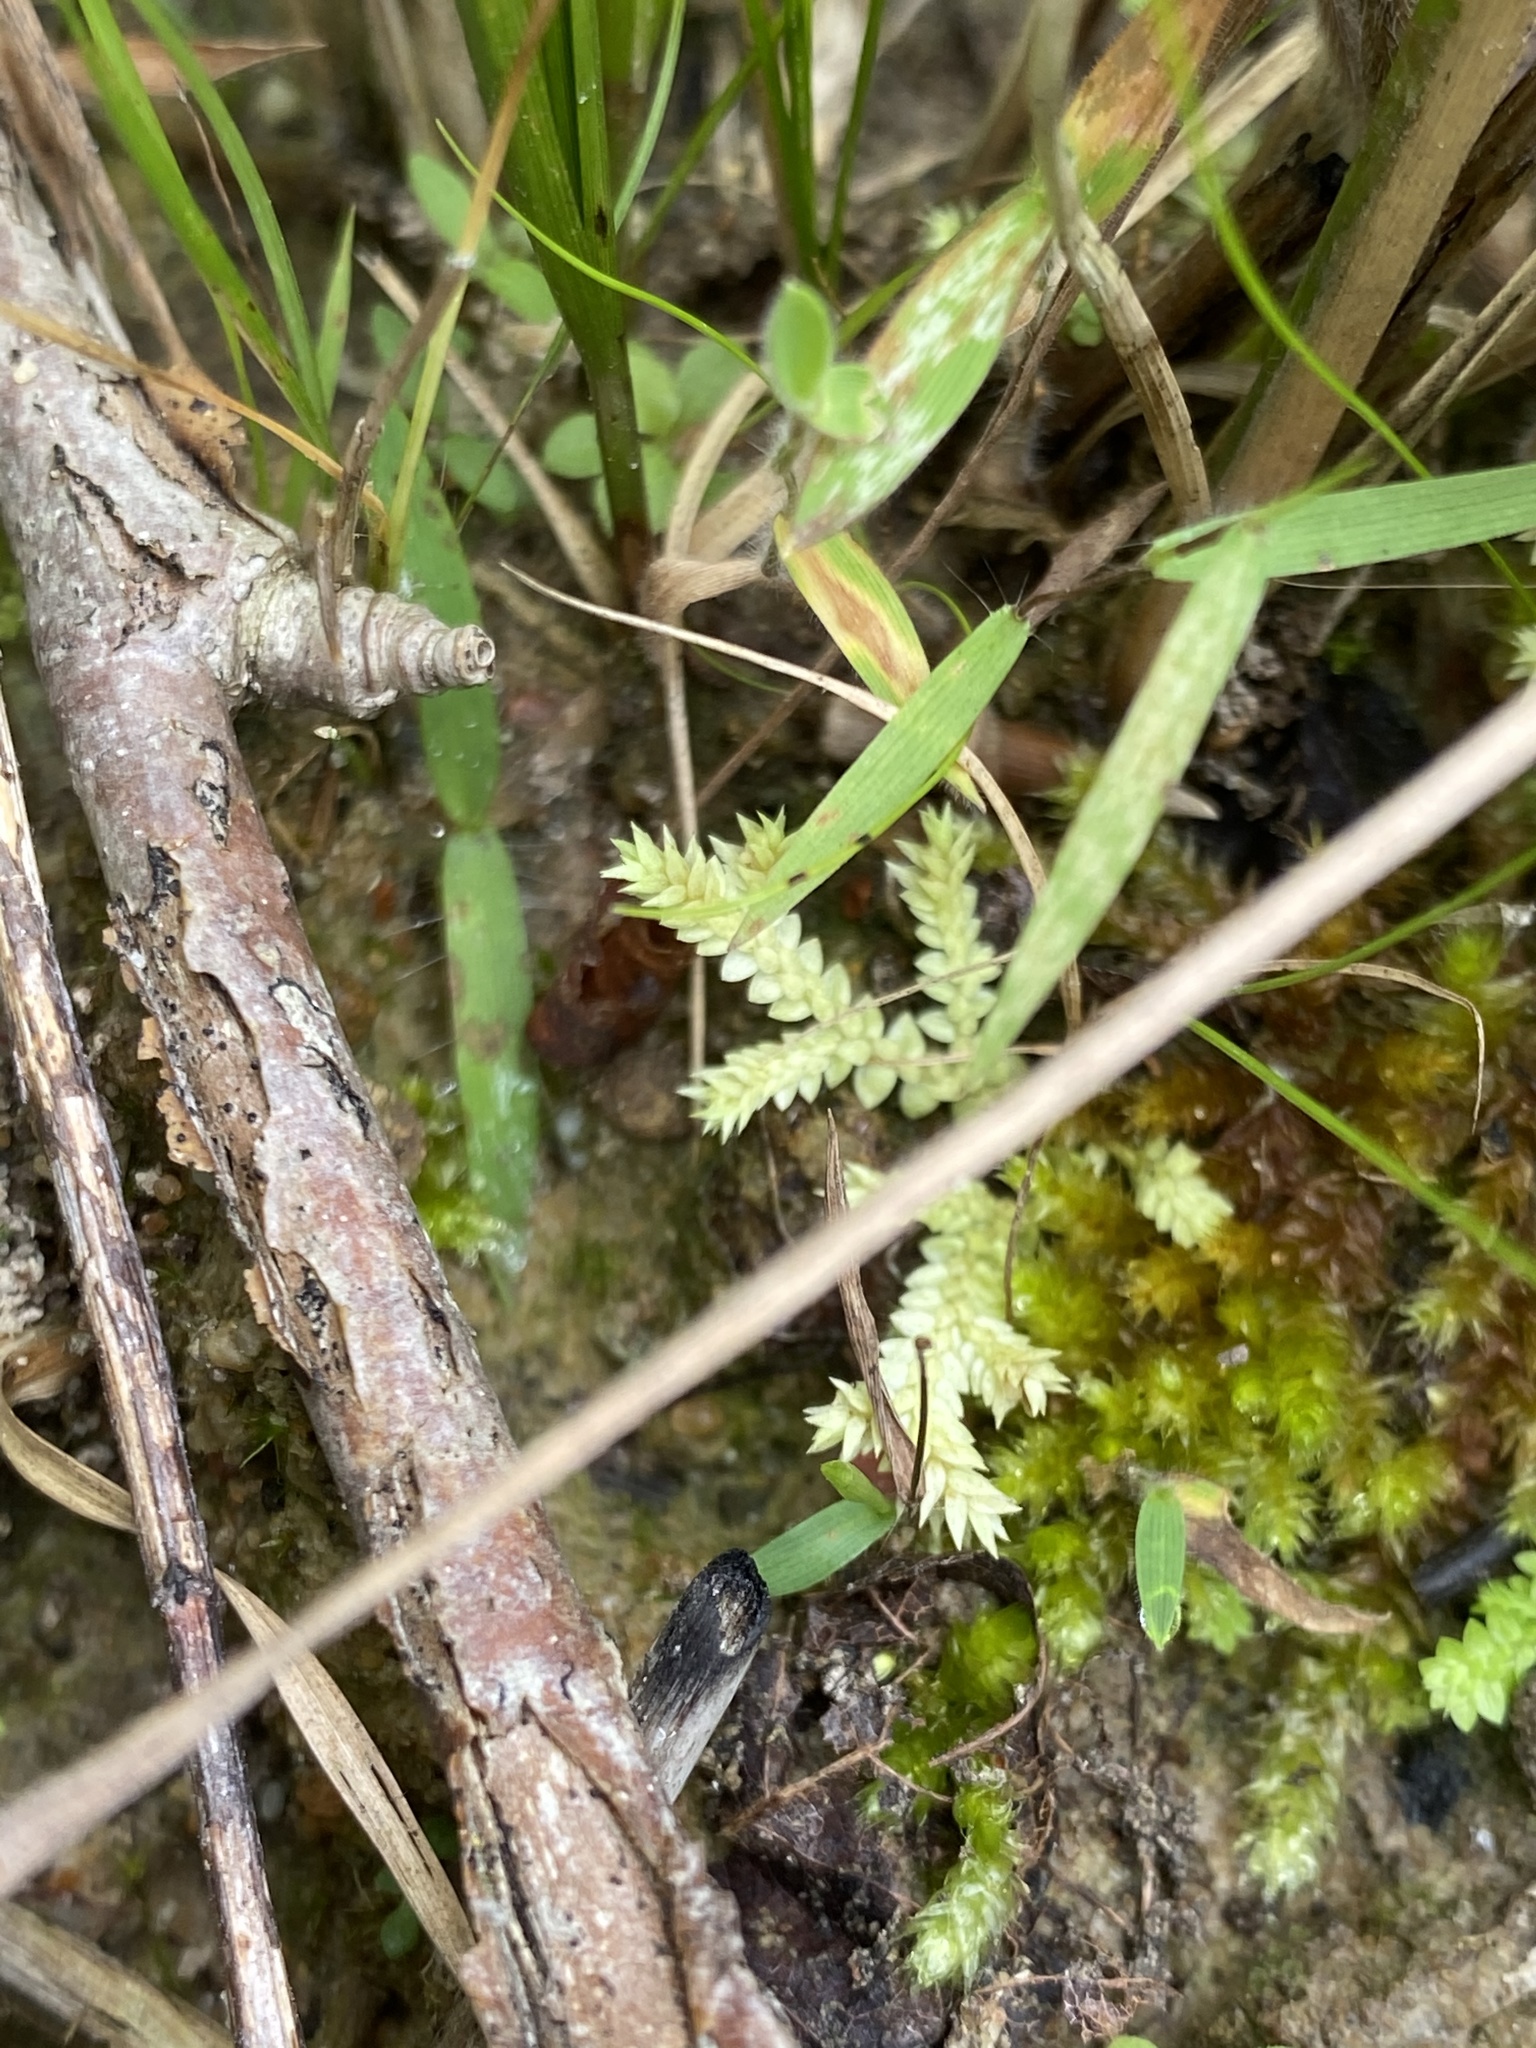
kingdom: Plantae
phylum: Tracheophyta
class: Lycopodiopsida
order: Selaginellales
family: Selaginellaceae
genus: Selaginella
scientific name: Selaginella apoda
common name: Creeping spikemoss
